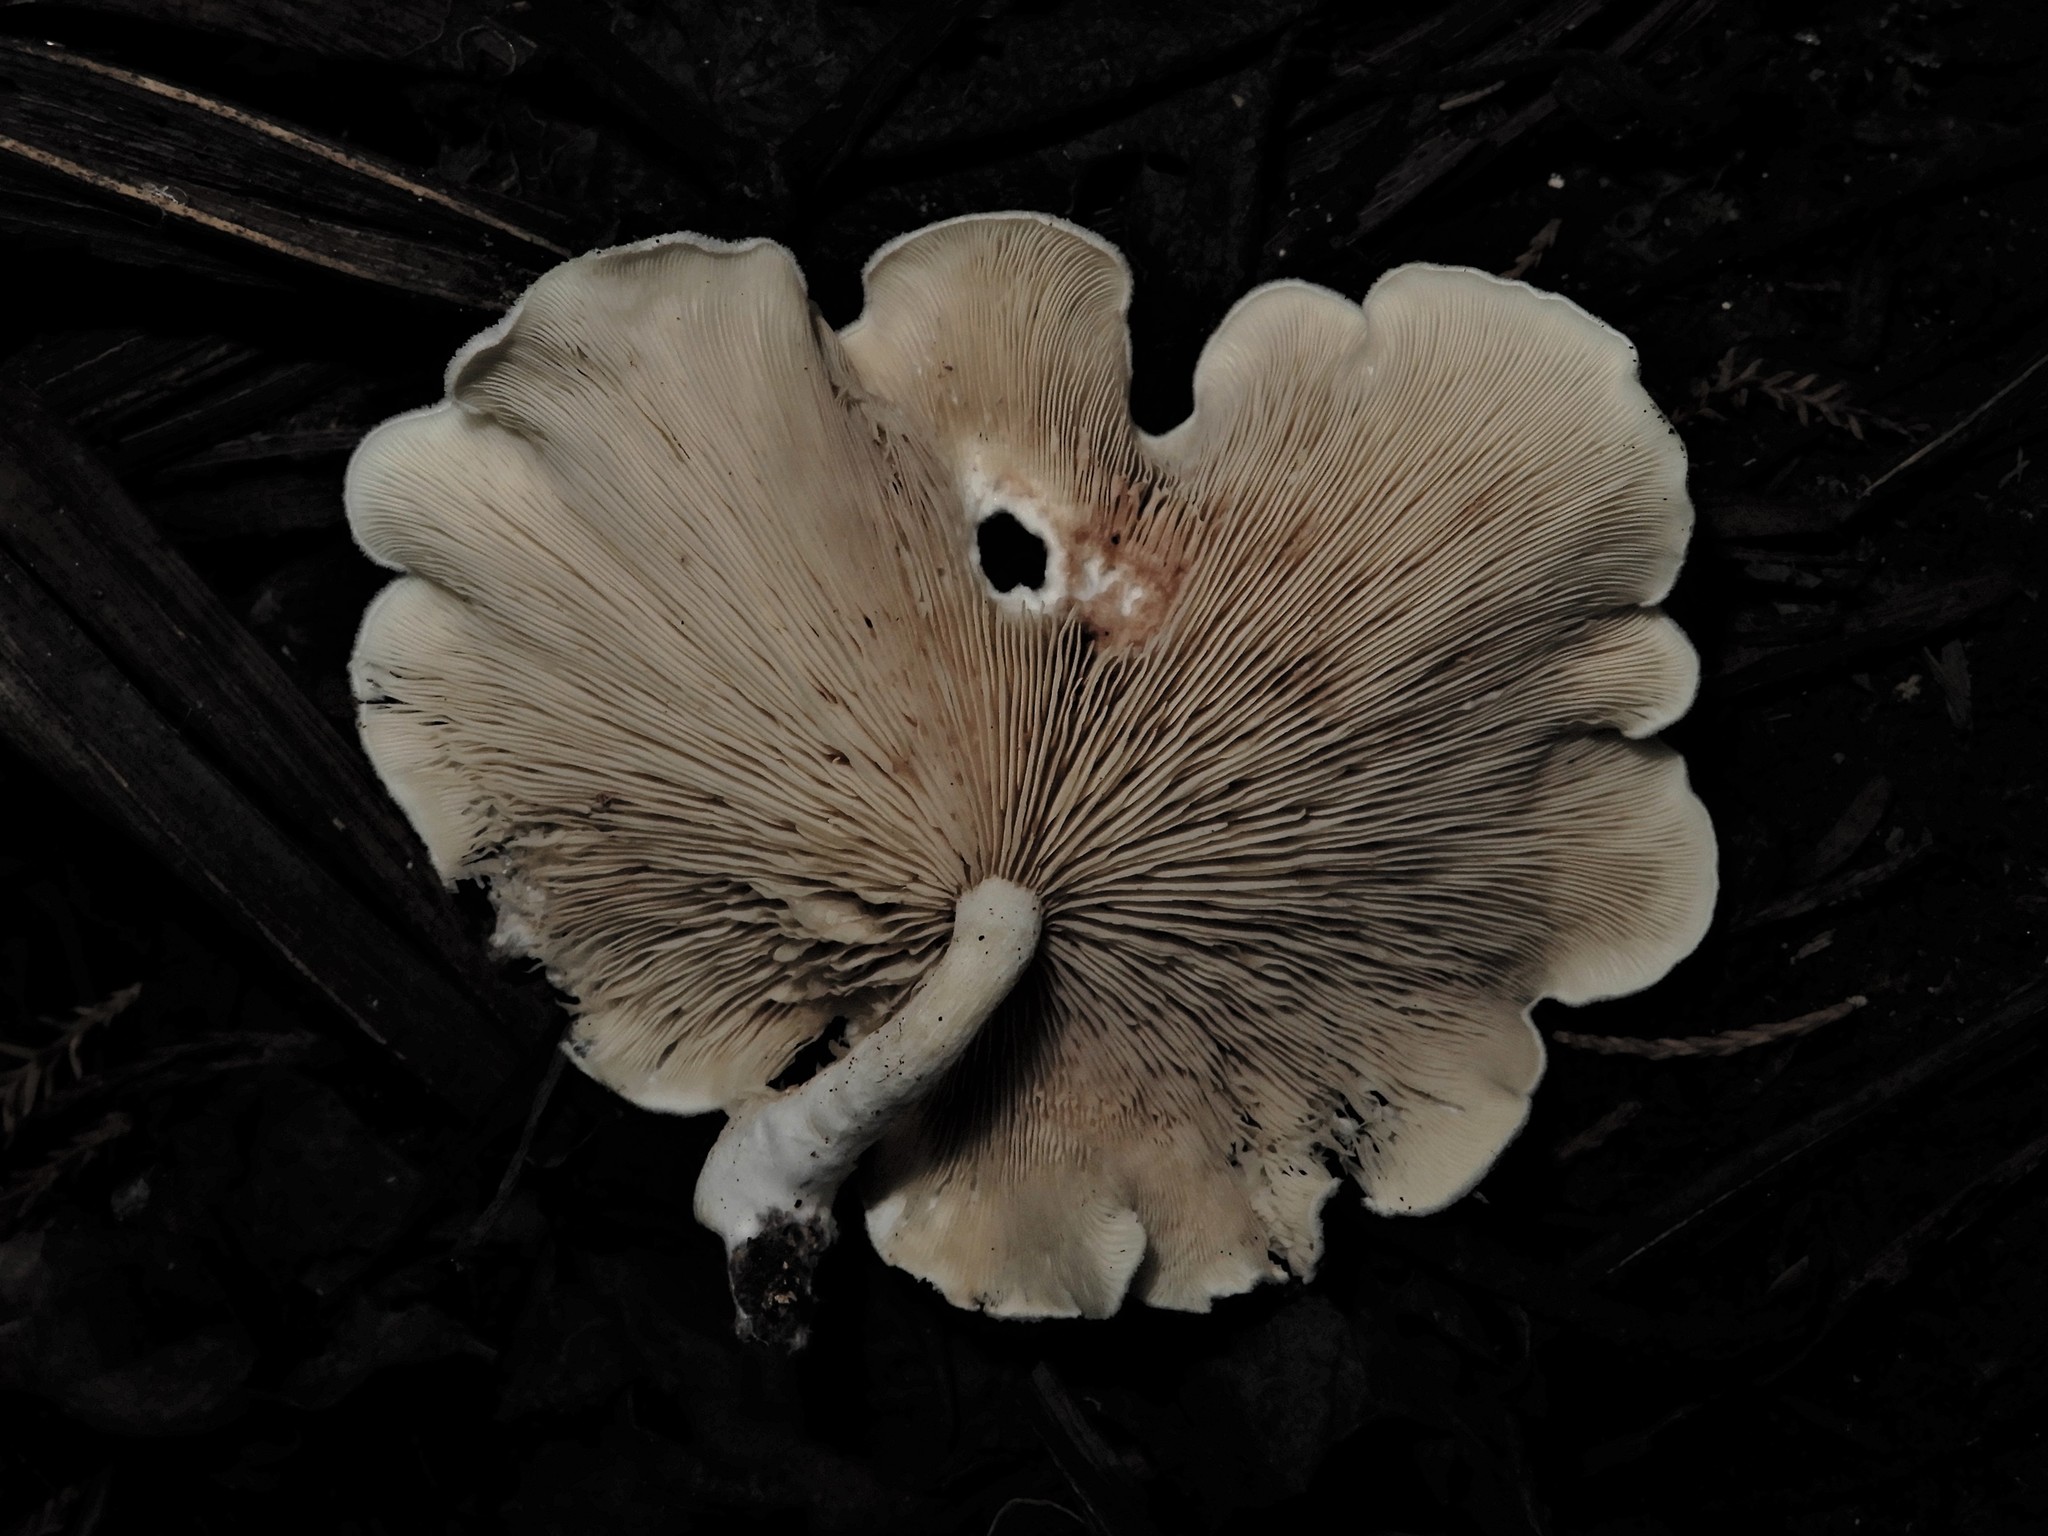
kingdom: Fungi
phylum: Basidiomycota
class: Agaricomycetes
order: Agaricales
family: Entolomataceae
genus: Clitopilus
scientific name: Clitopilus
